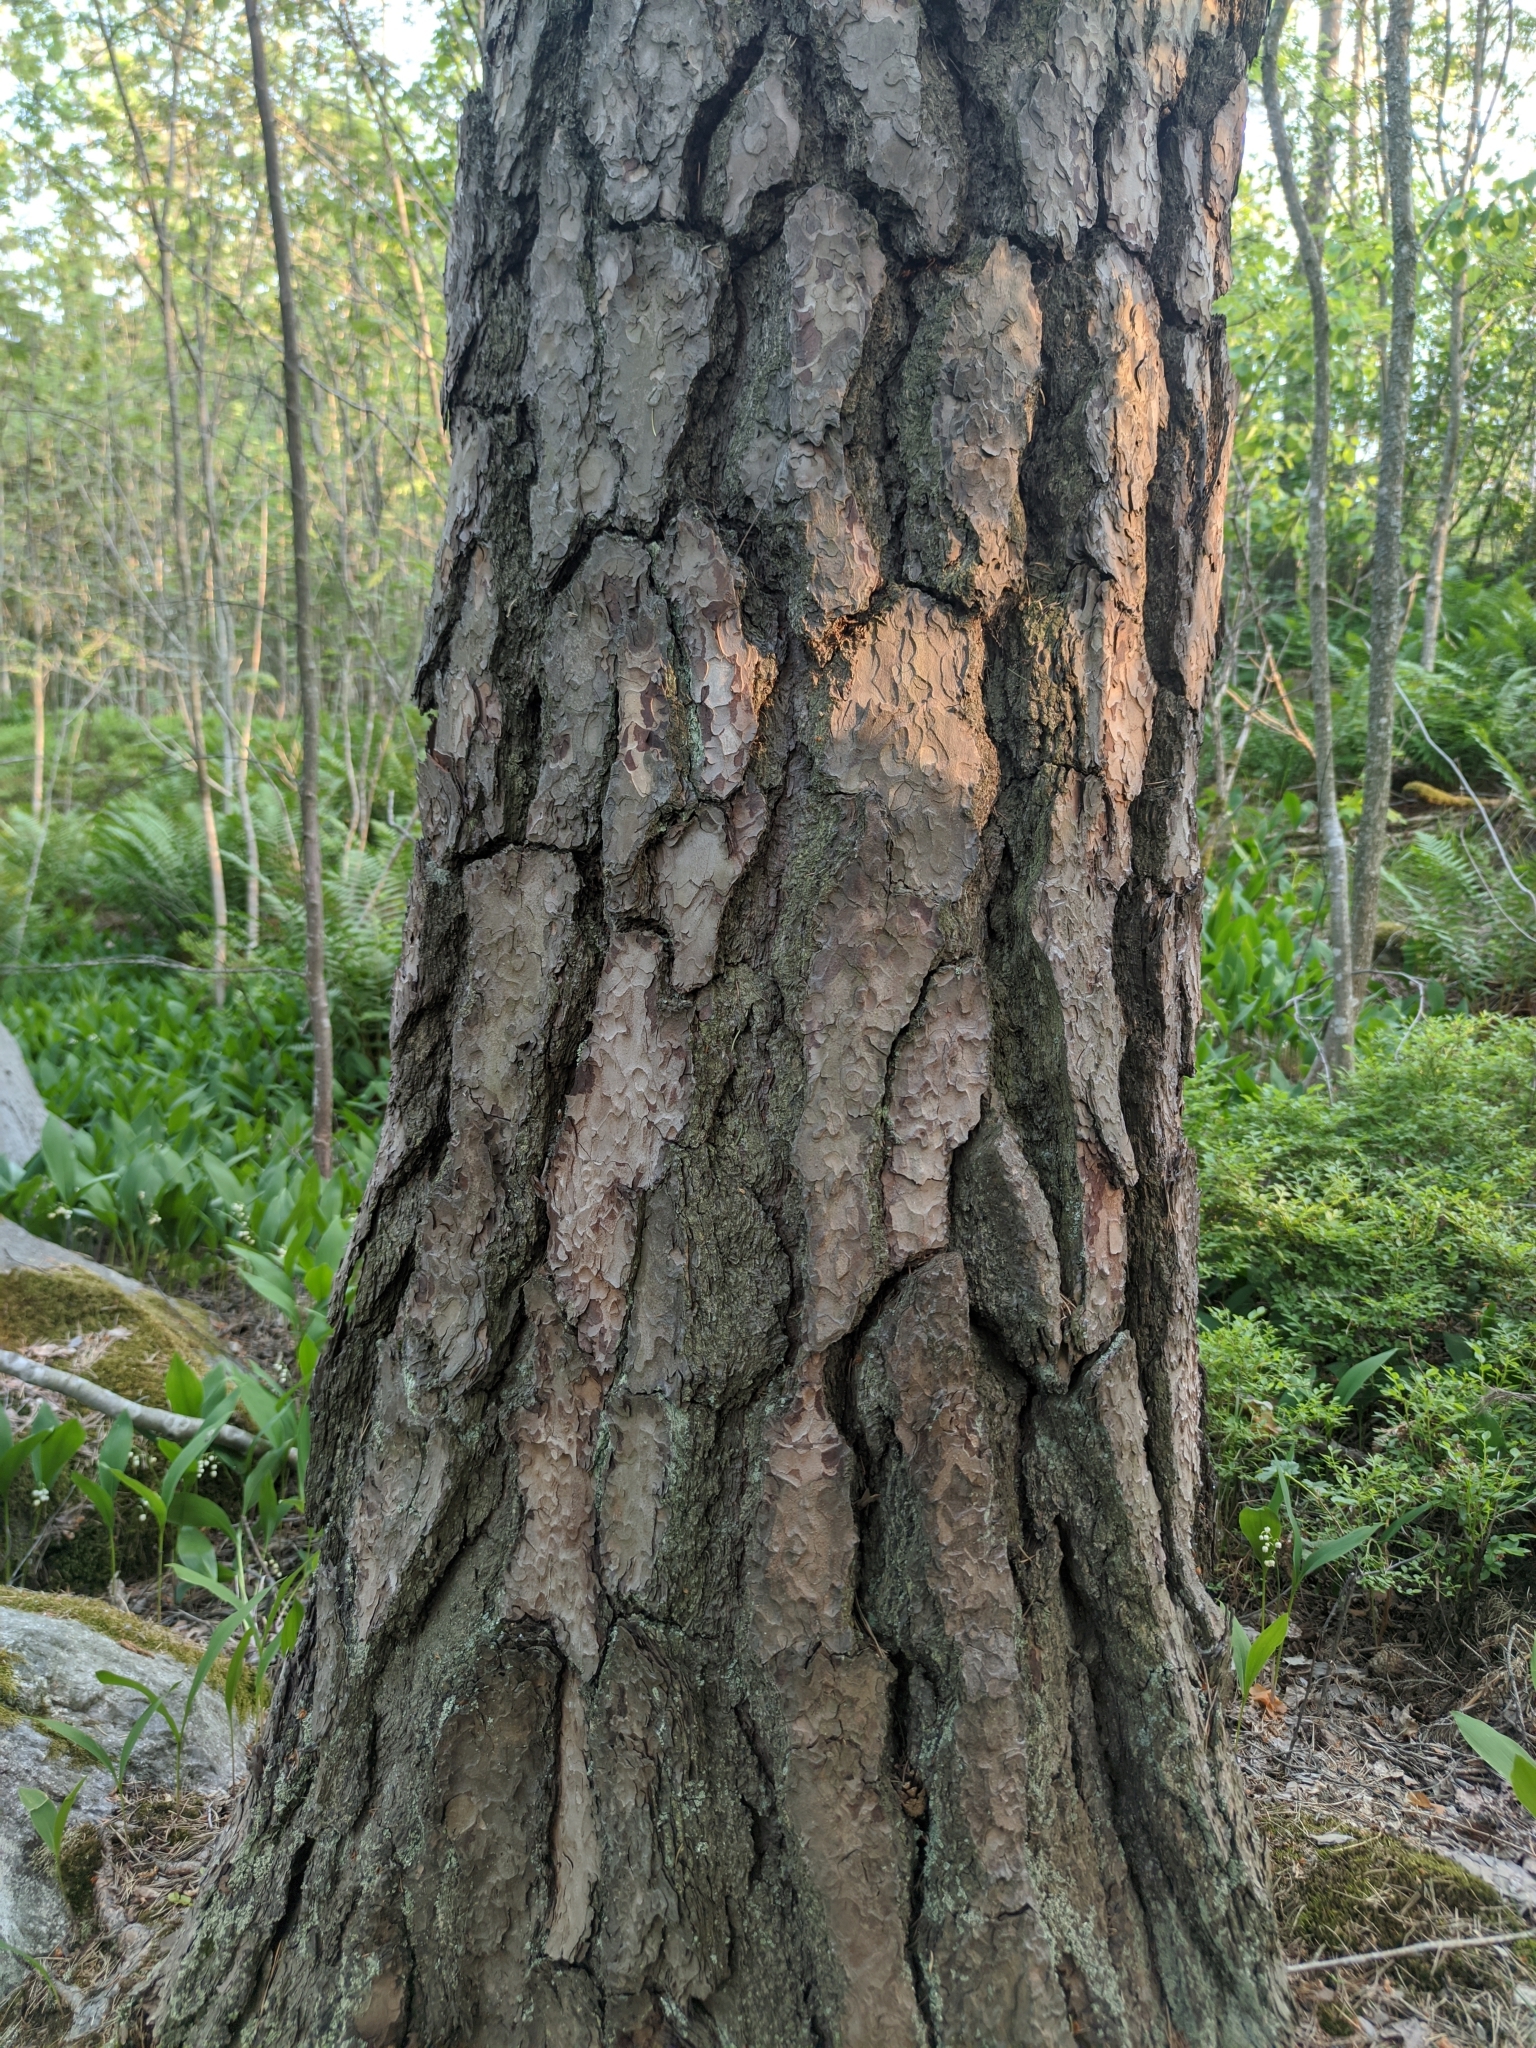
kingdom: Plantae
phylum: Tracheophyta
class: Pinopsida
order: Pinales
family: Pinaceae
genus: Pinus
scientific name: Pinus sylvestris
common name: Scots pine
